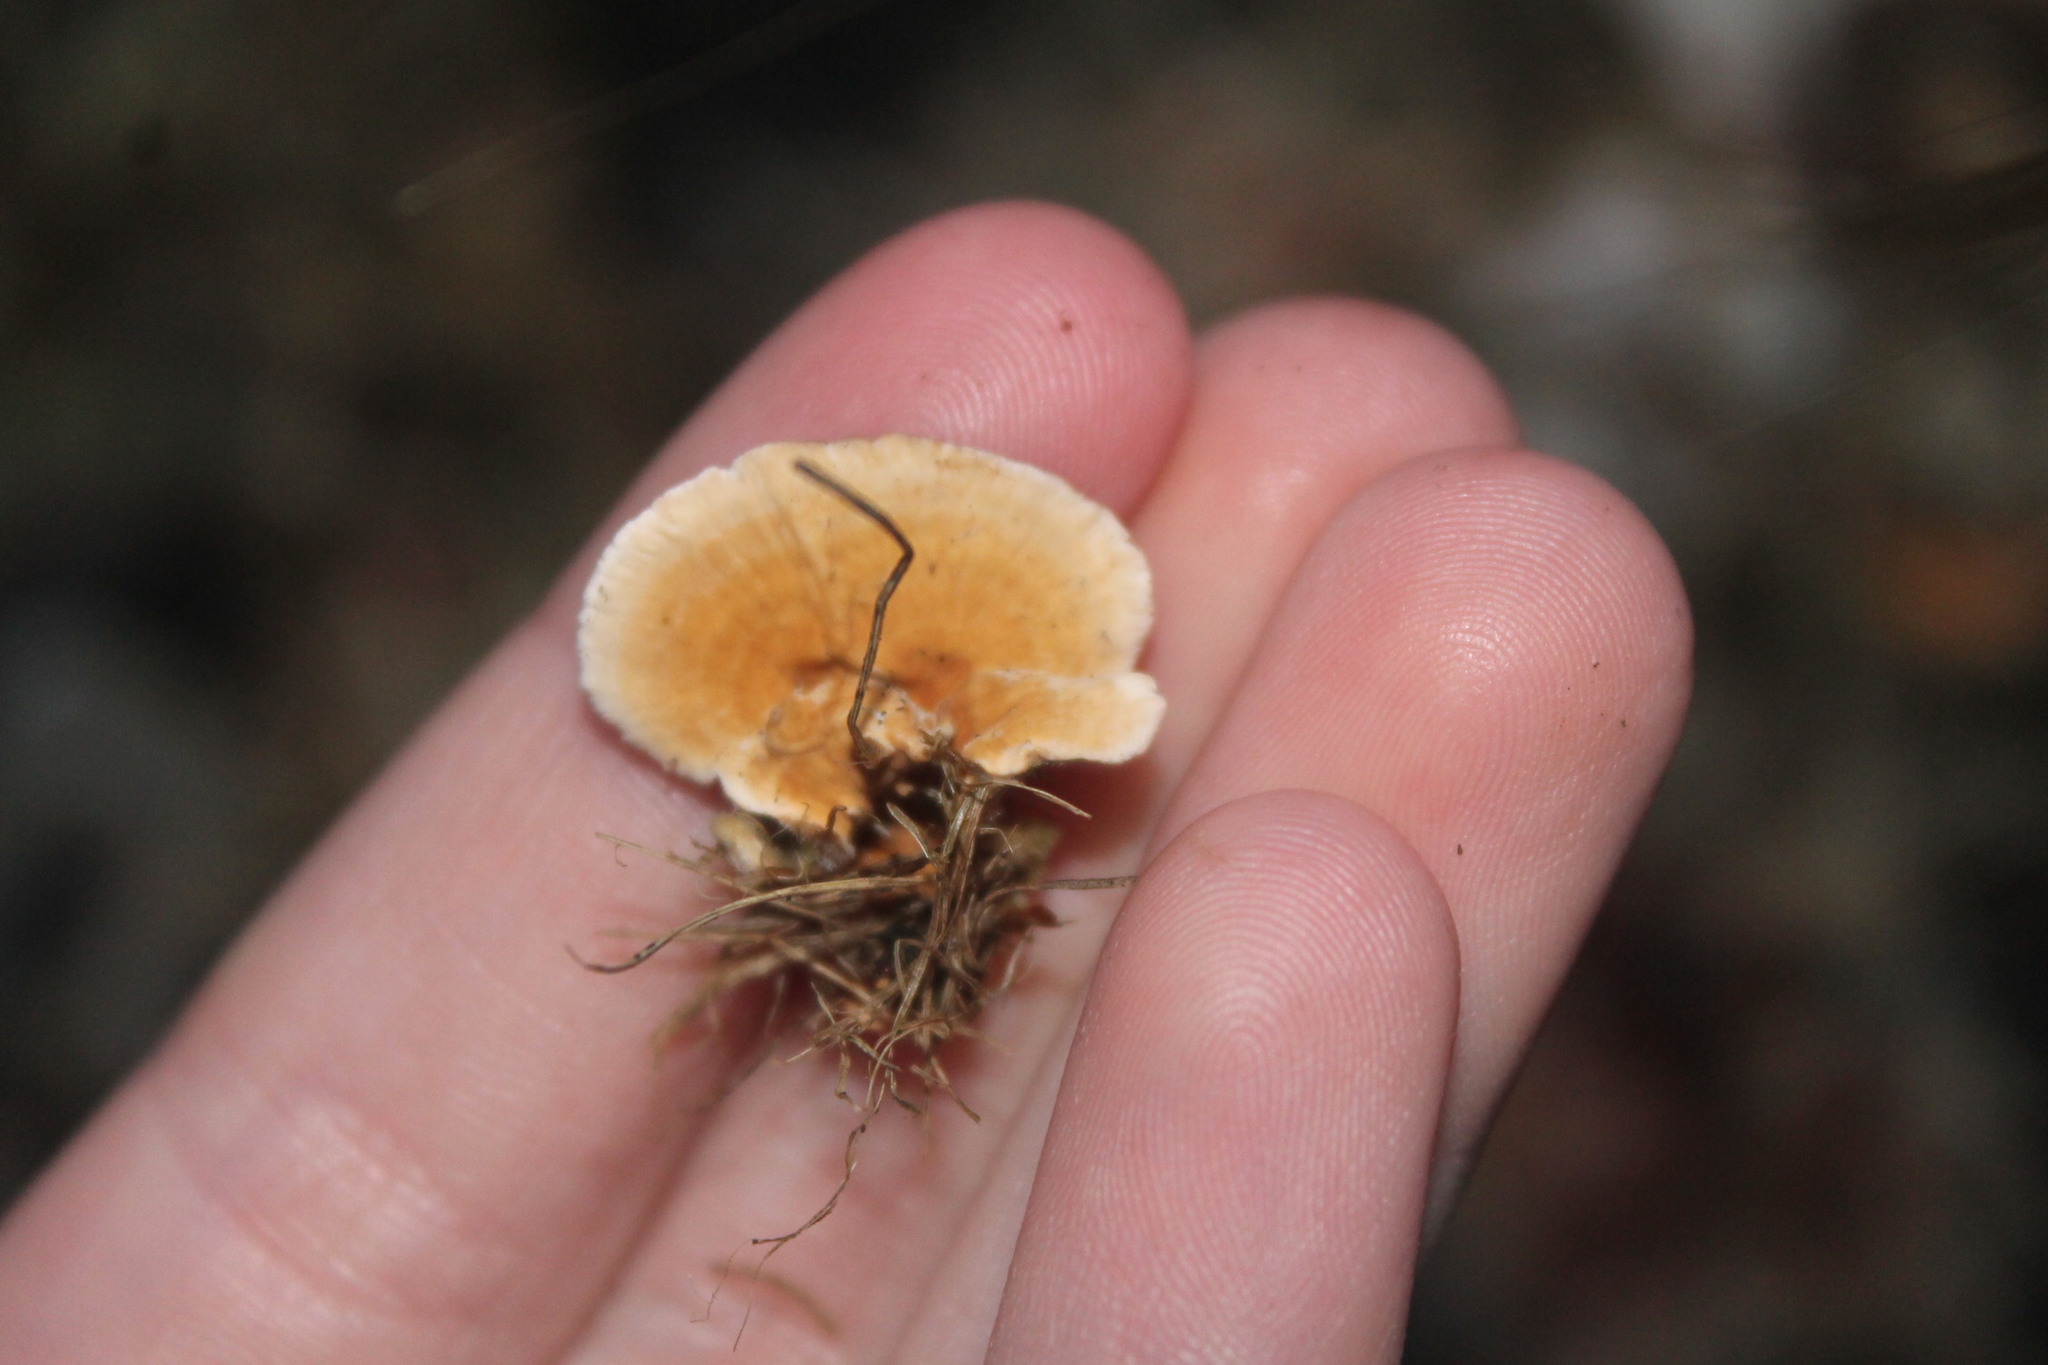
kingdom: Fungi
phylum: Basidiomycota
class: Agaricomycetes
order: Russulales
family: Stereaceae
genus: Stereum
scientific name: Stereum lobatum
